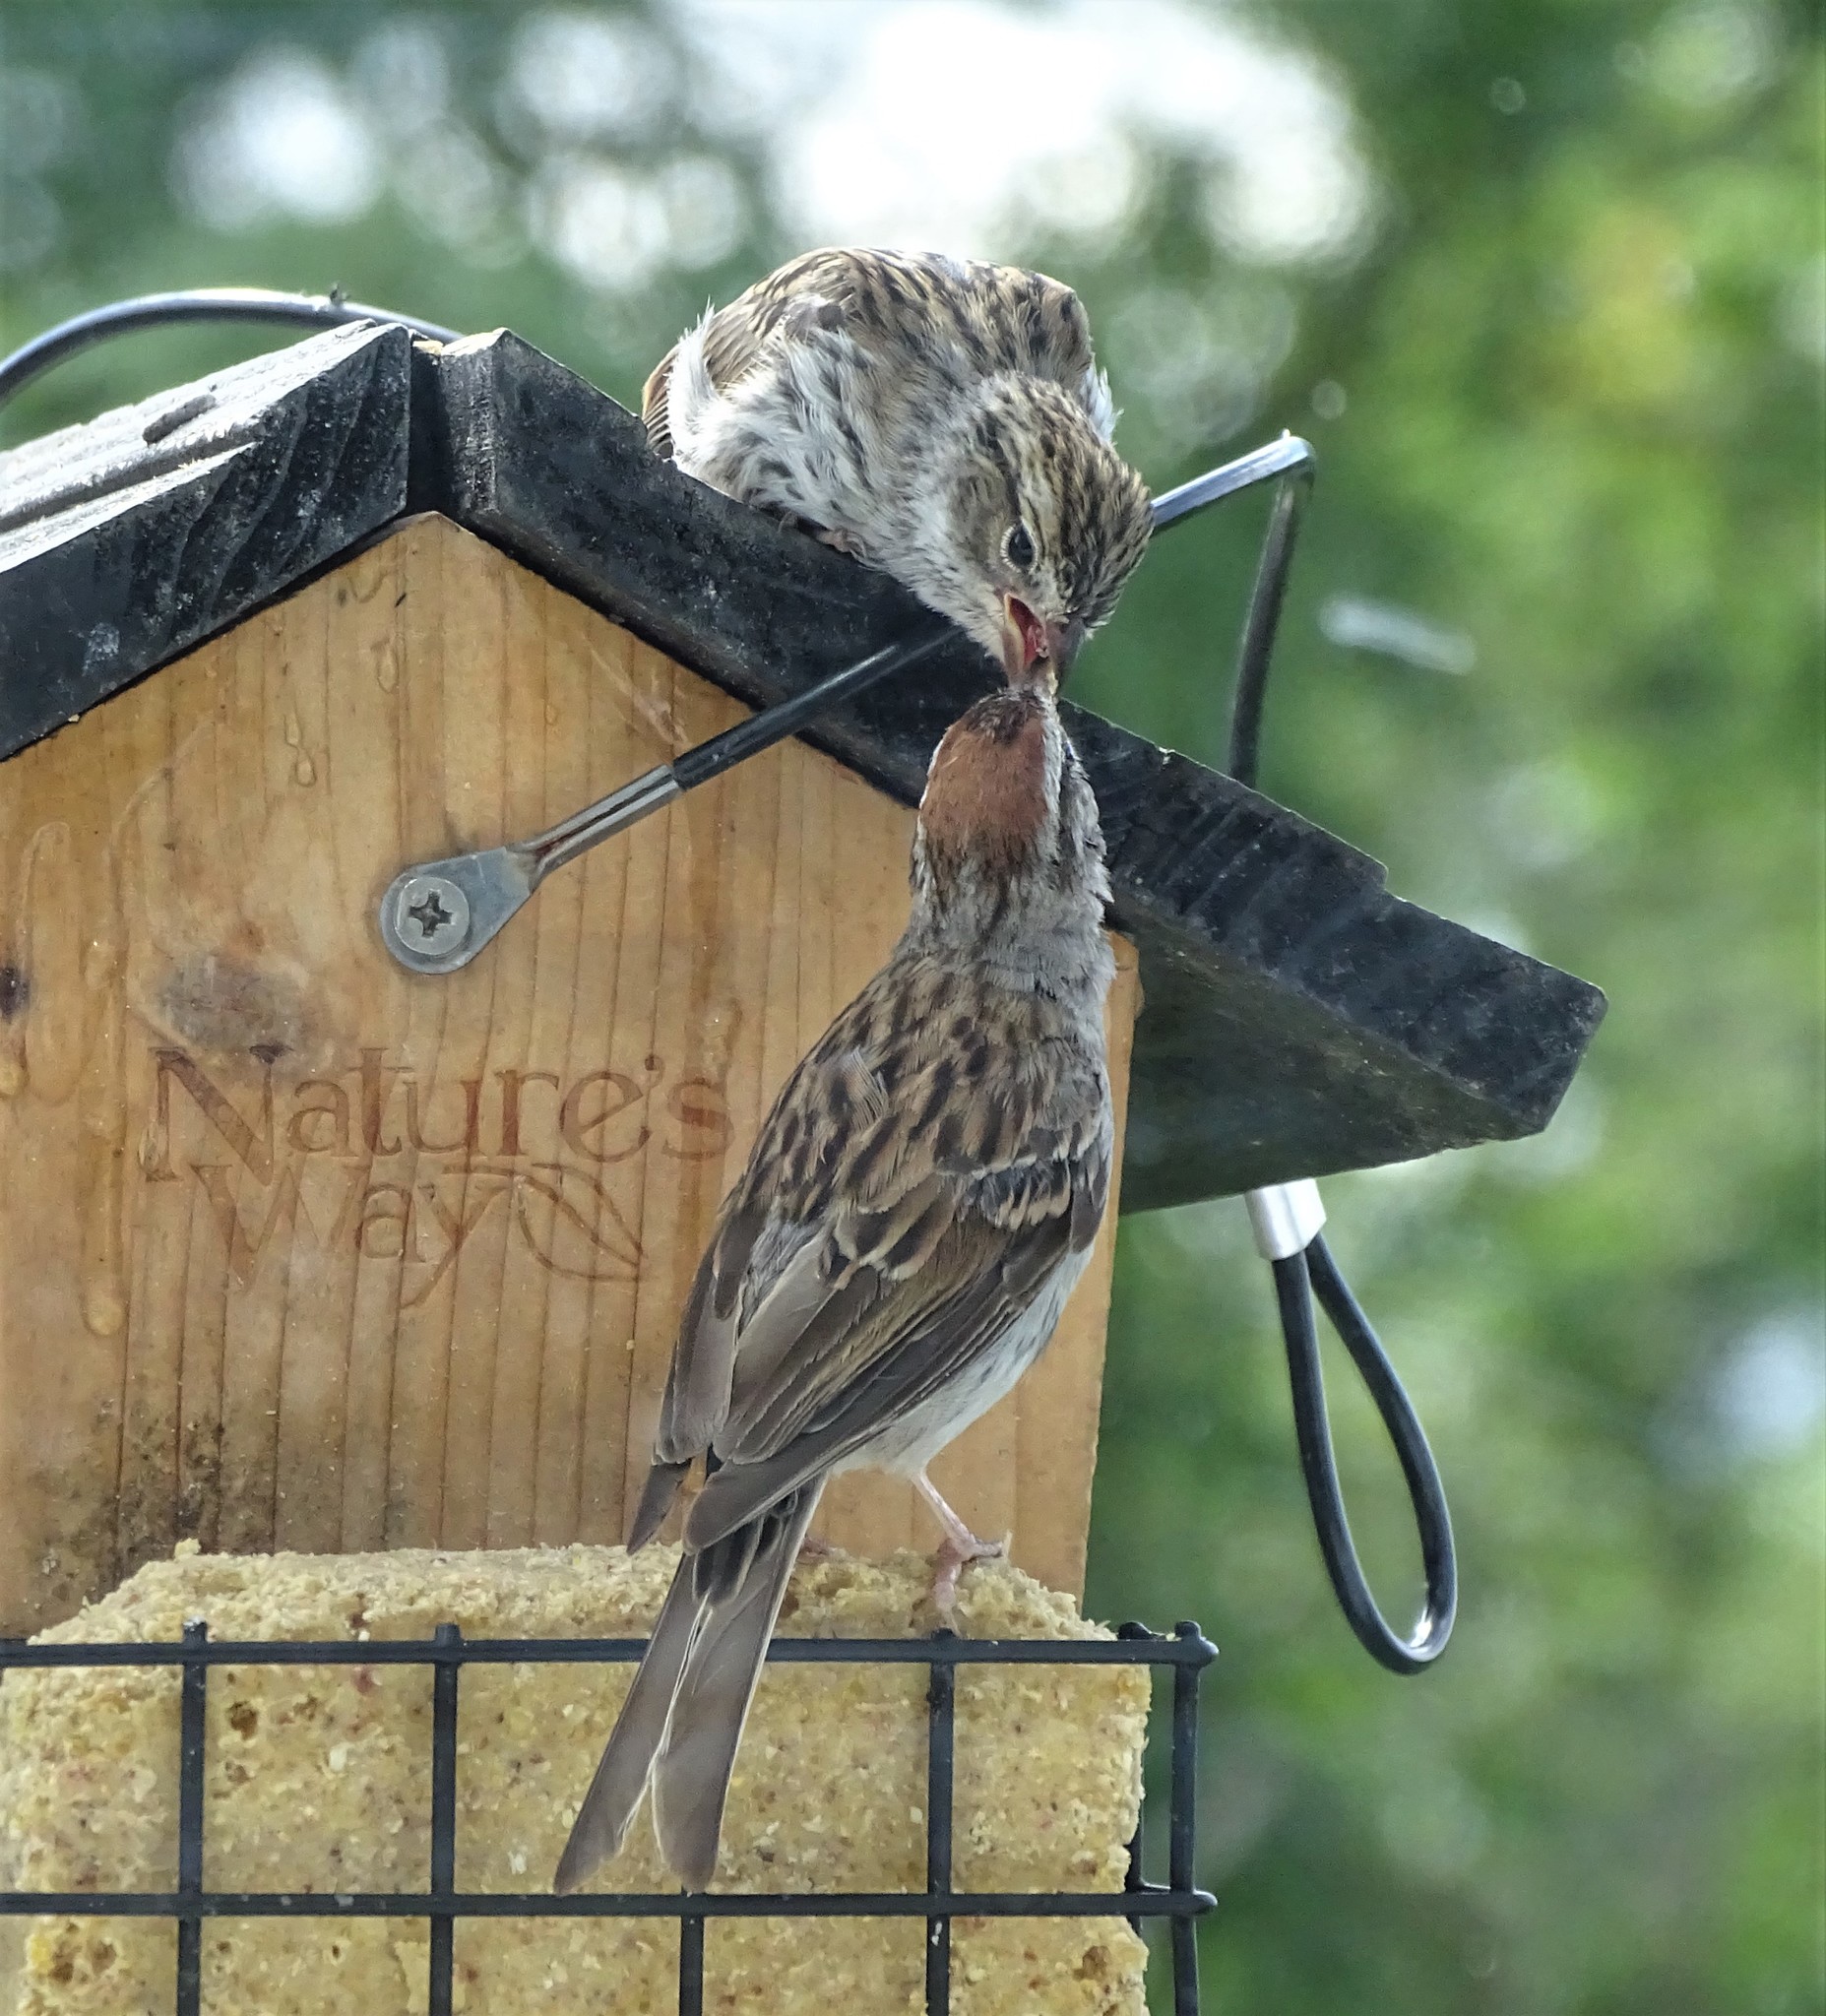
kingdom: Animalia
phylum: Chordata
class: Aves
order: Passeriformes
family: Passerellidae
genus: Spizella
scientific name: Spizella passerina
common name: Chipping sparrow
